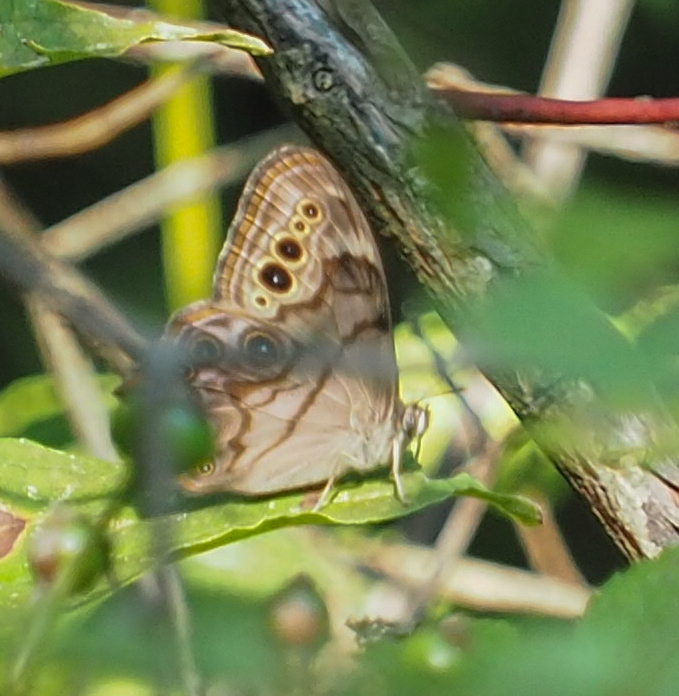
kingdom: Animalia
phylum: Arthropoda
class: Insecta
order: Lepidoptera
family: Nymphalidae
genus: Lethe
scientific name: Lethe anthedon
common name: Northern pearly-eye
